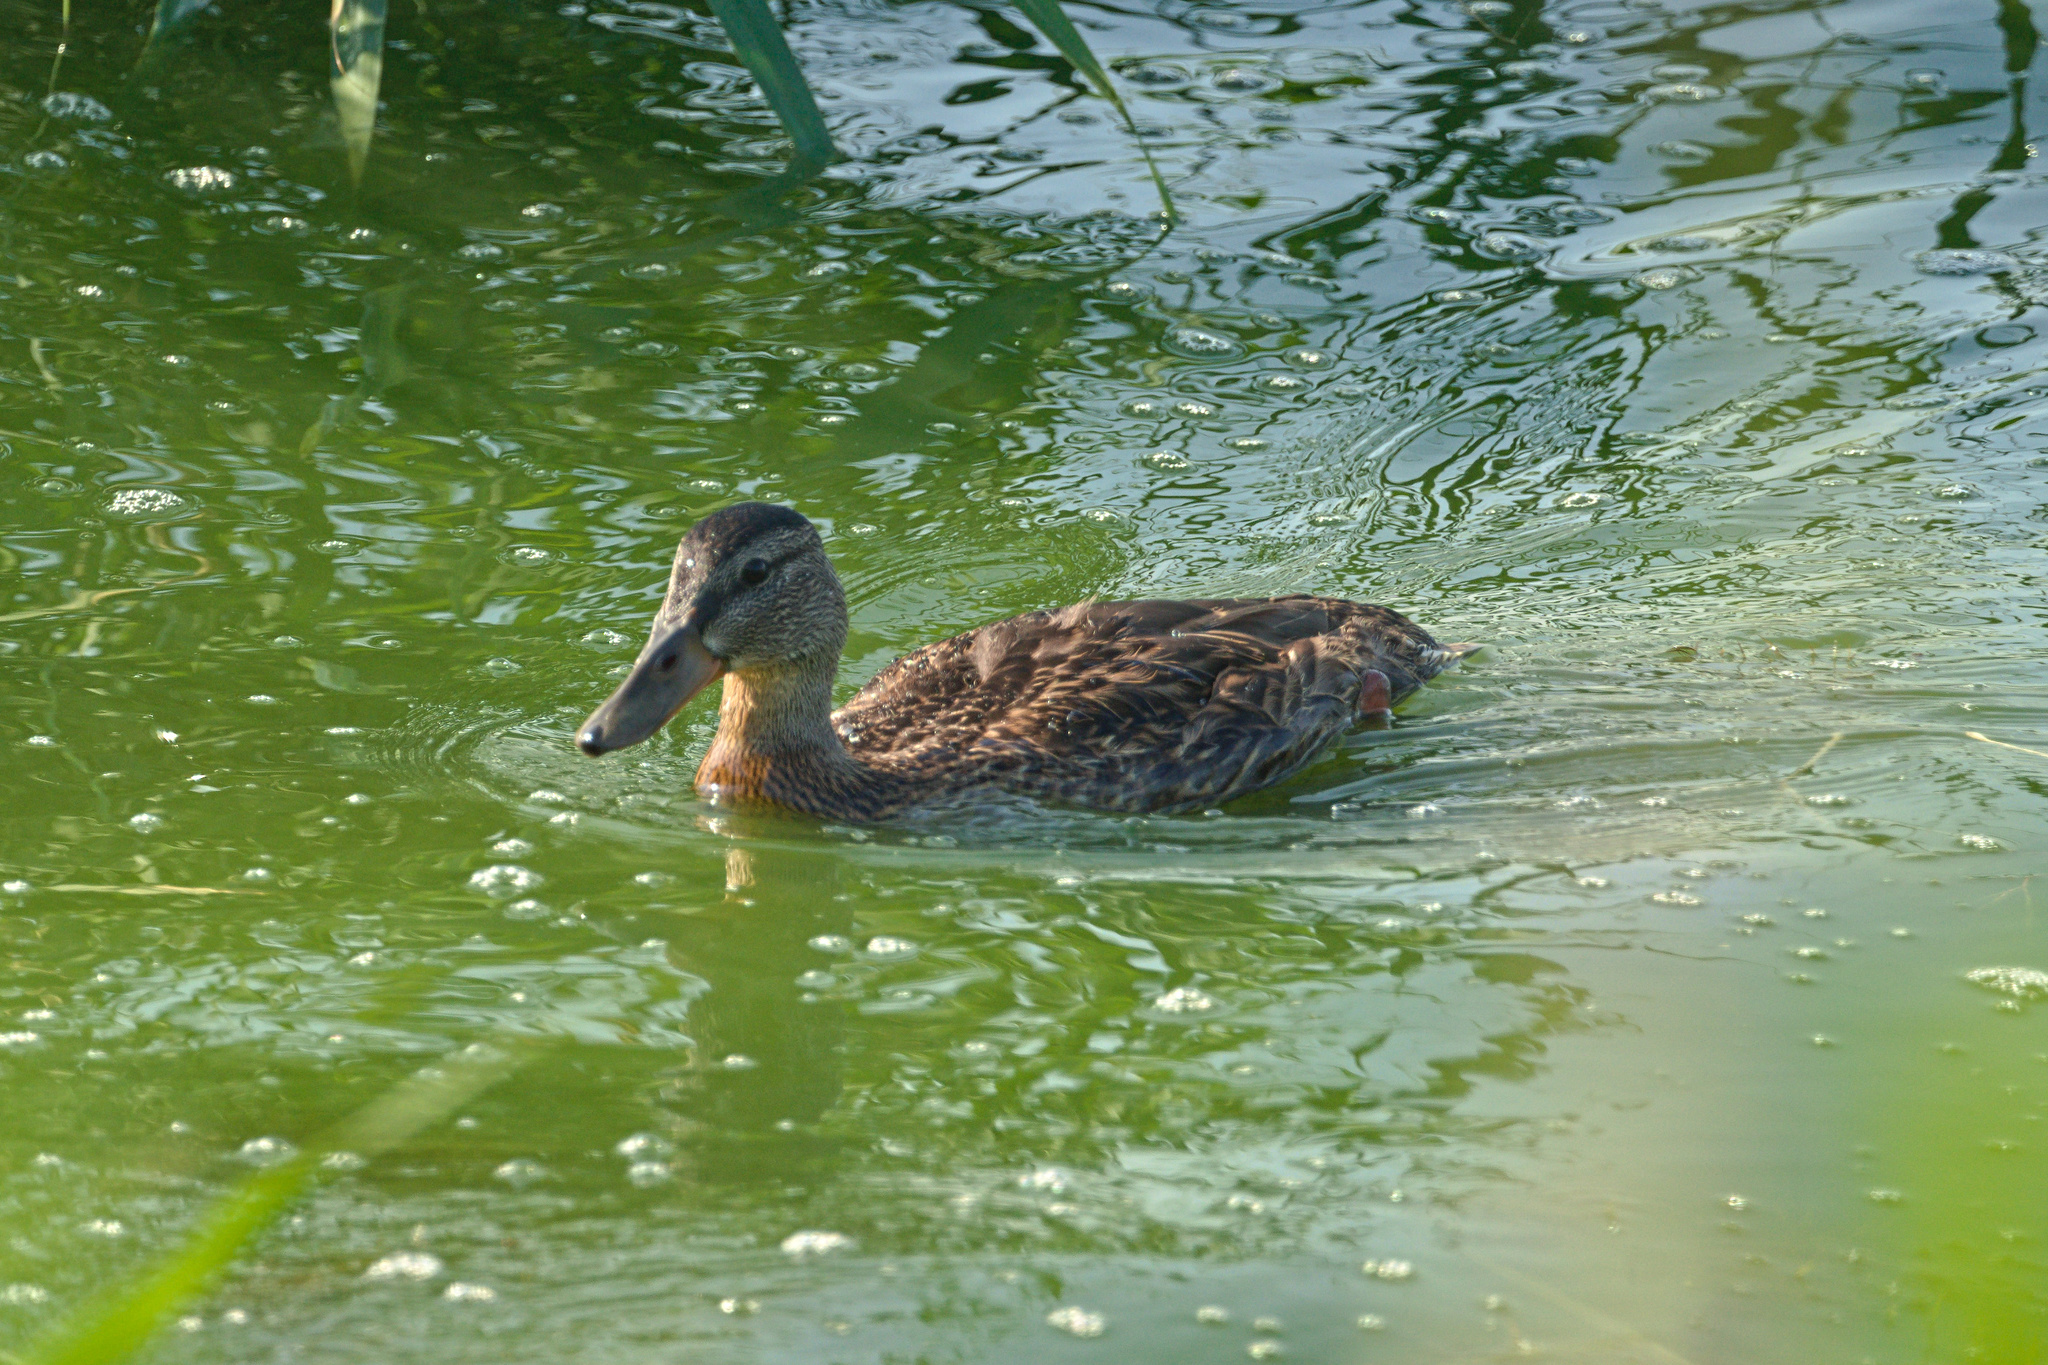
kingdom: Animalia
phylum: Chordata
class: Aves
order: Anseriformes
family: Anatidae
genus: Anas
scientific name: Anas platyrhynchos
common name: Mallard
